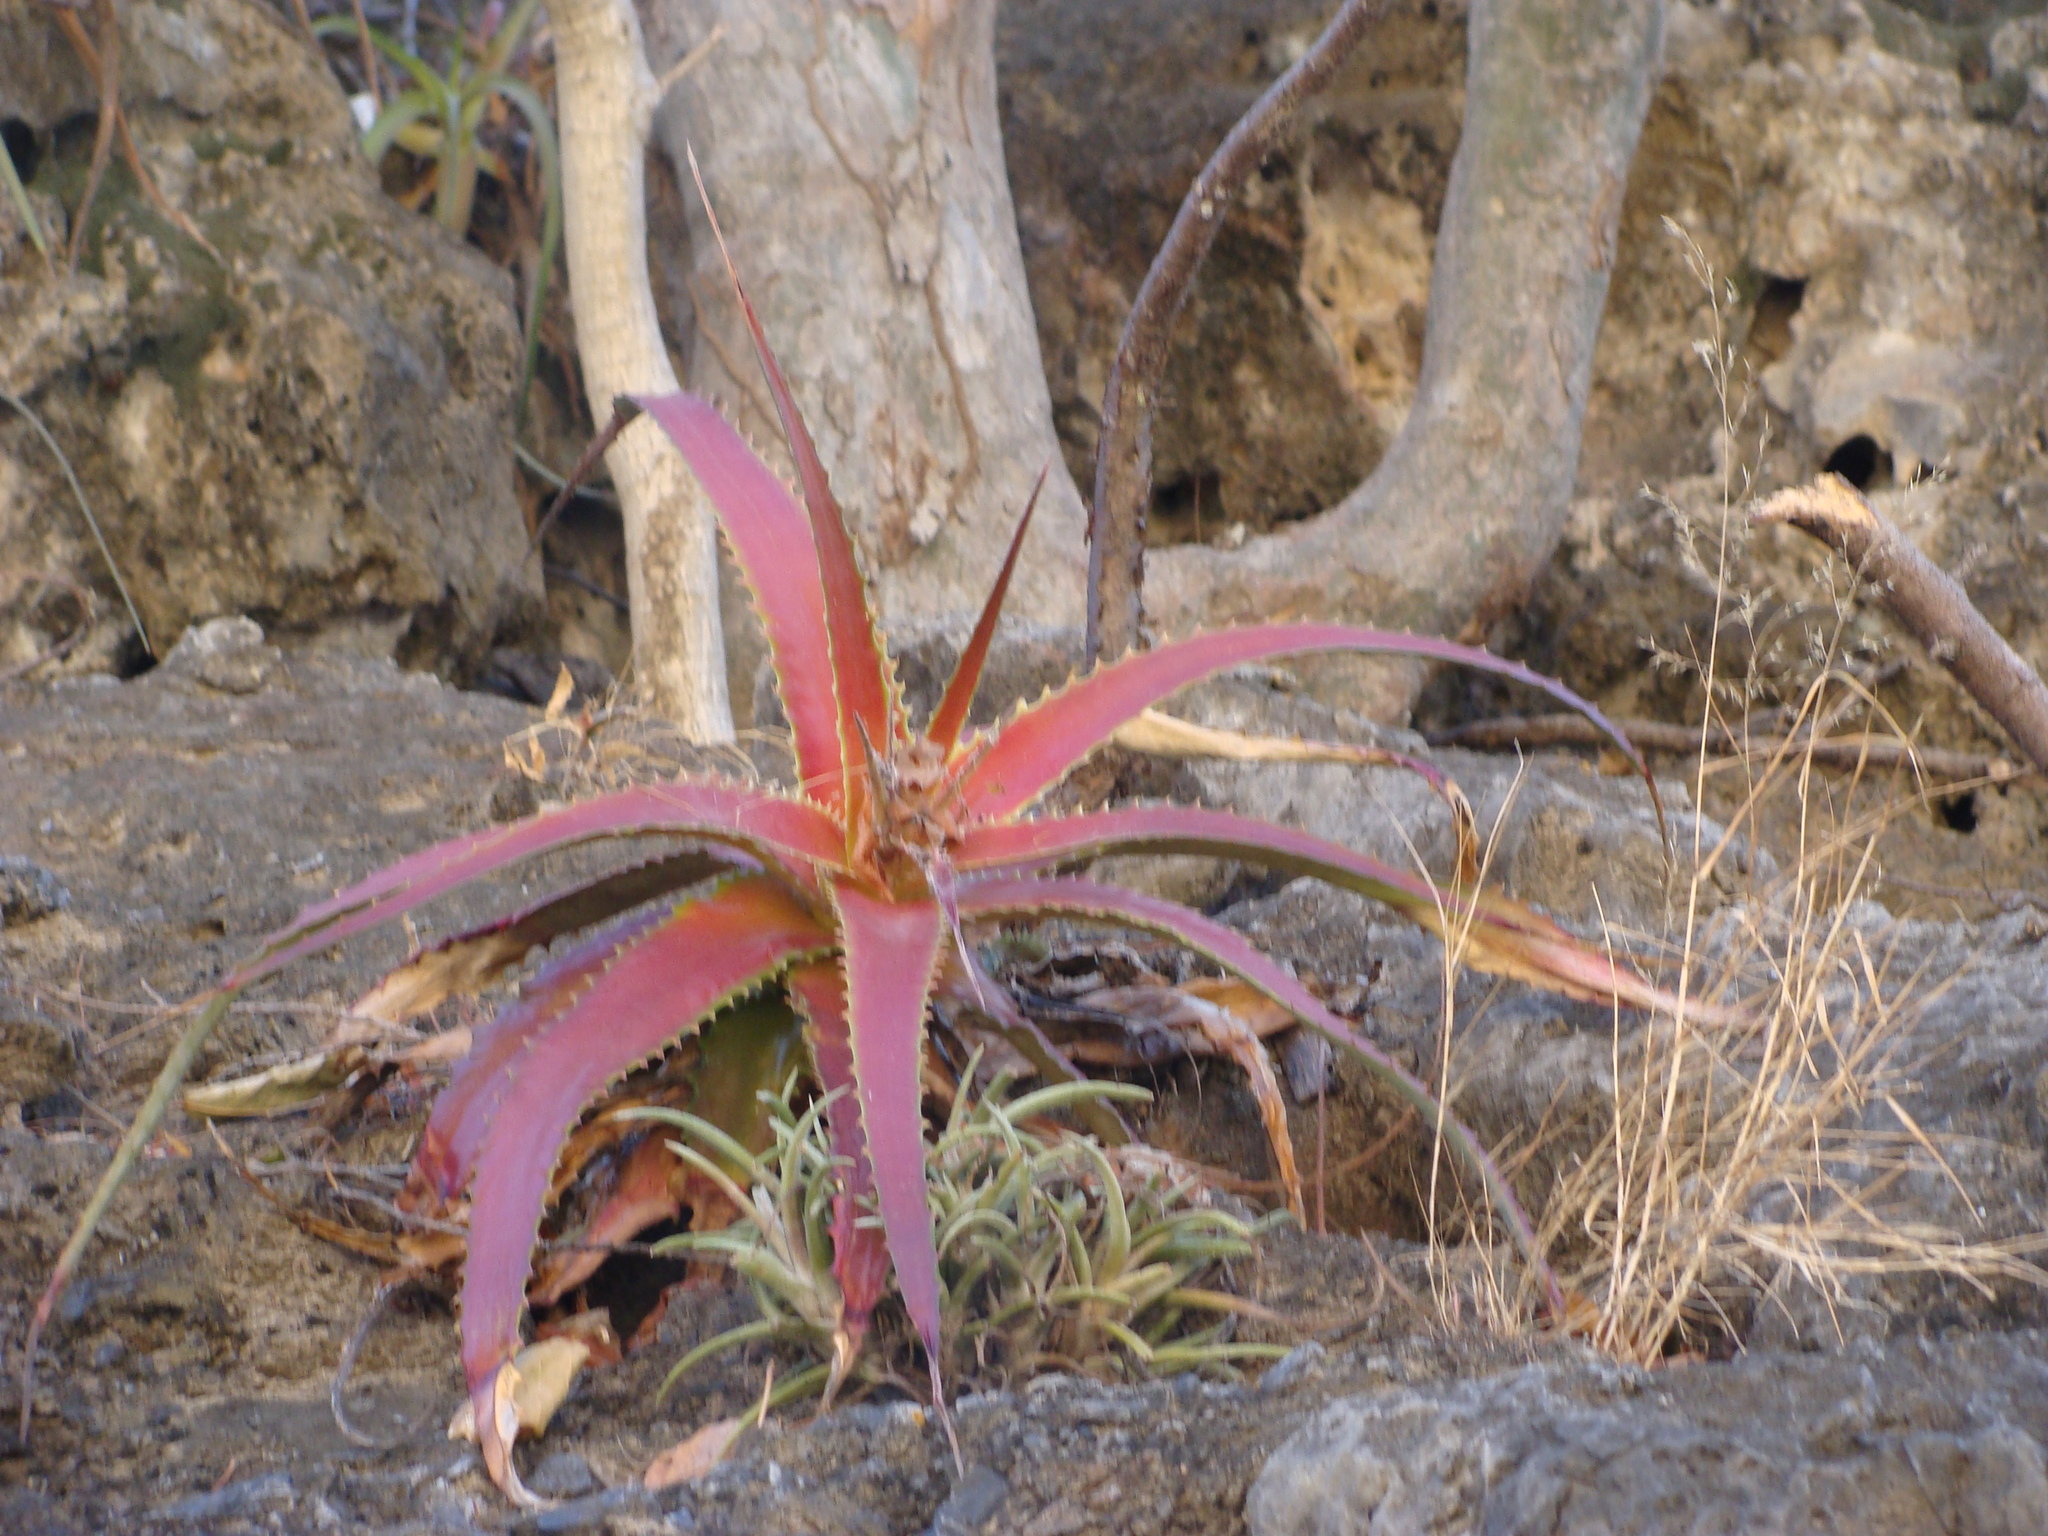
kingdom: Plantae
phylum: Tracheophyta
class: Liliopsida
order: Poales
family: Bromeliaceae
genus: Hechtia
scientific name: Hechtia rubicunda
